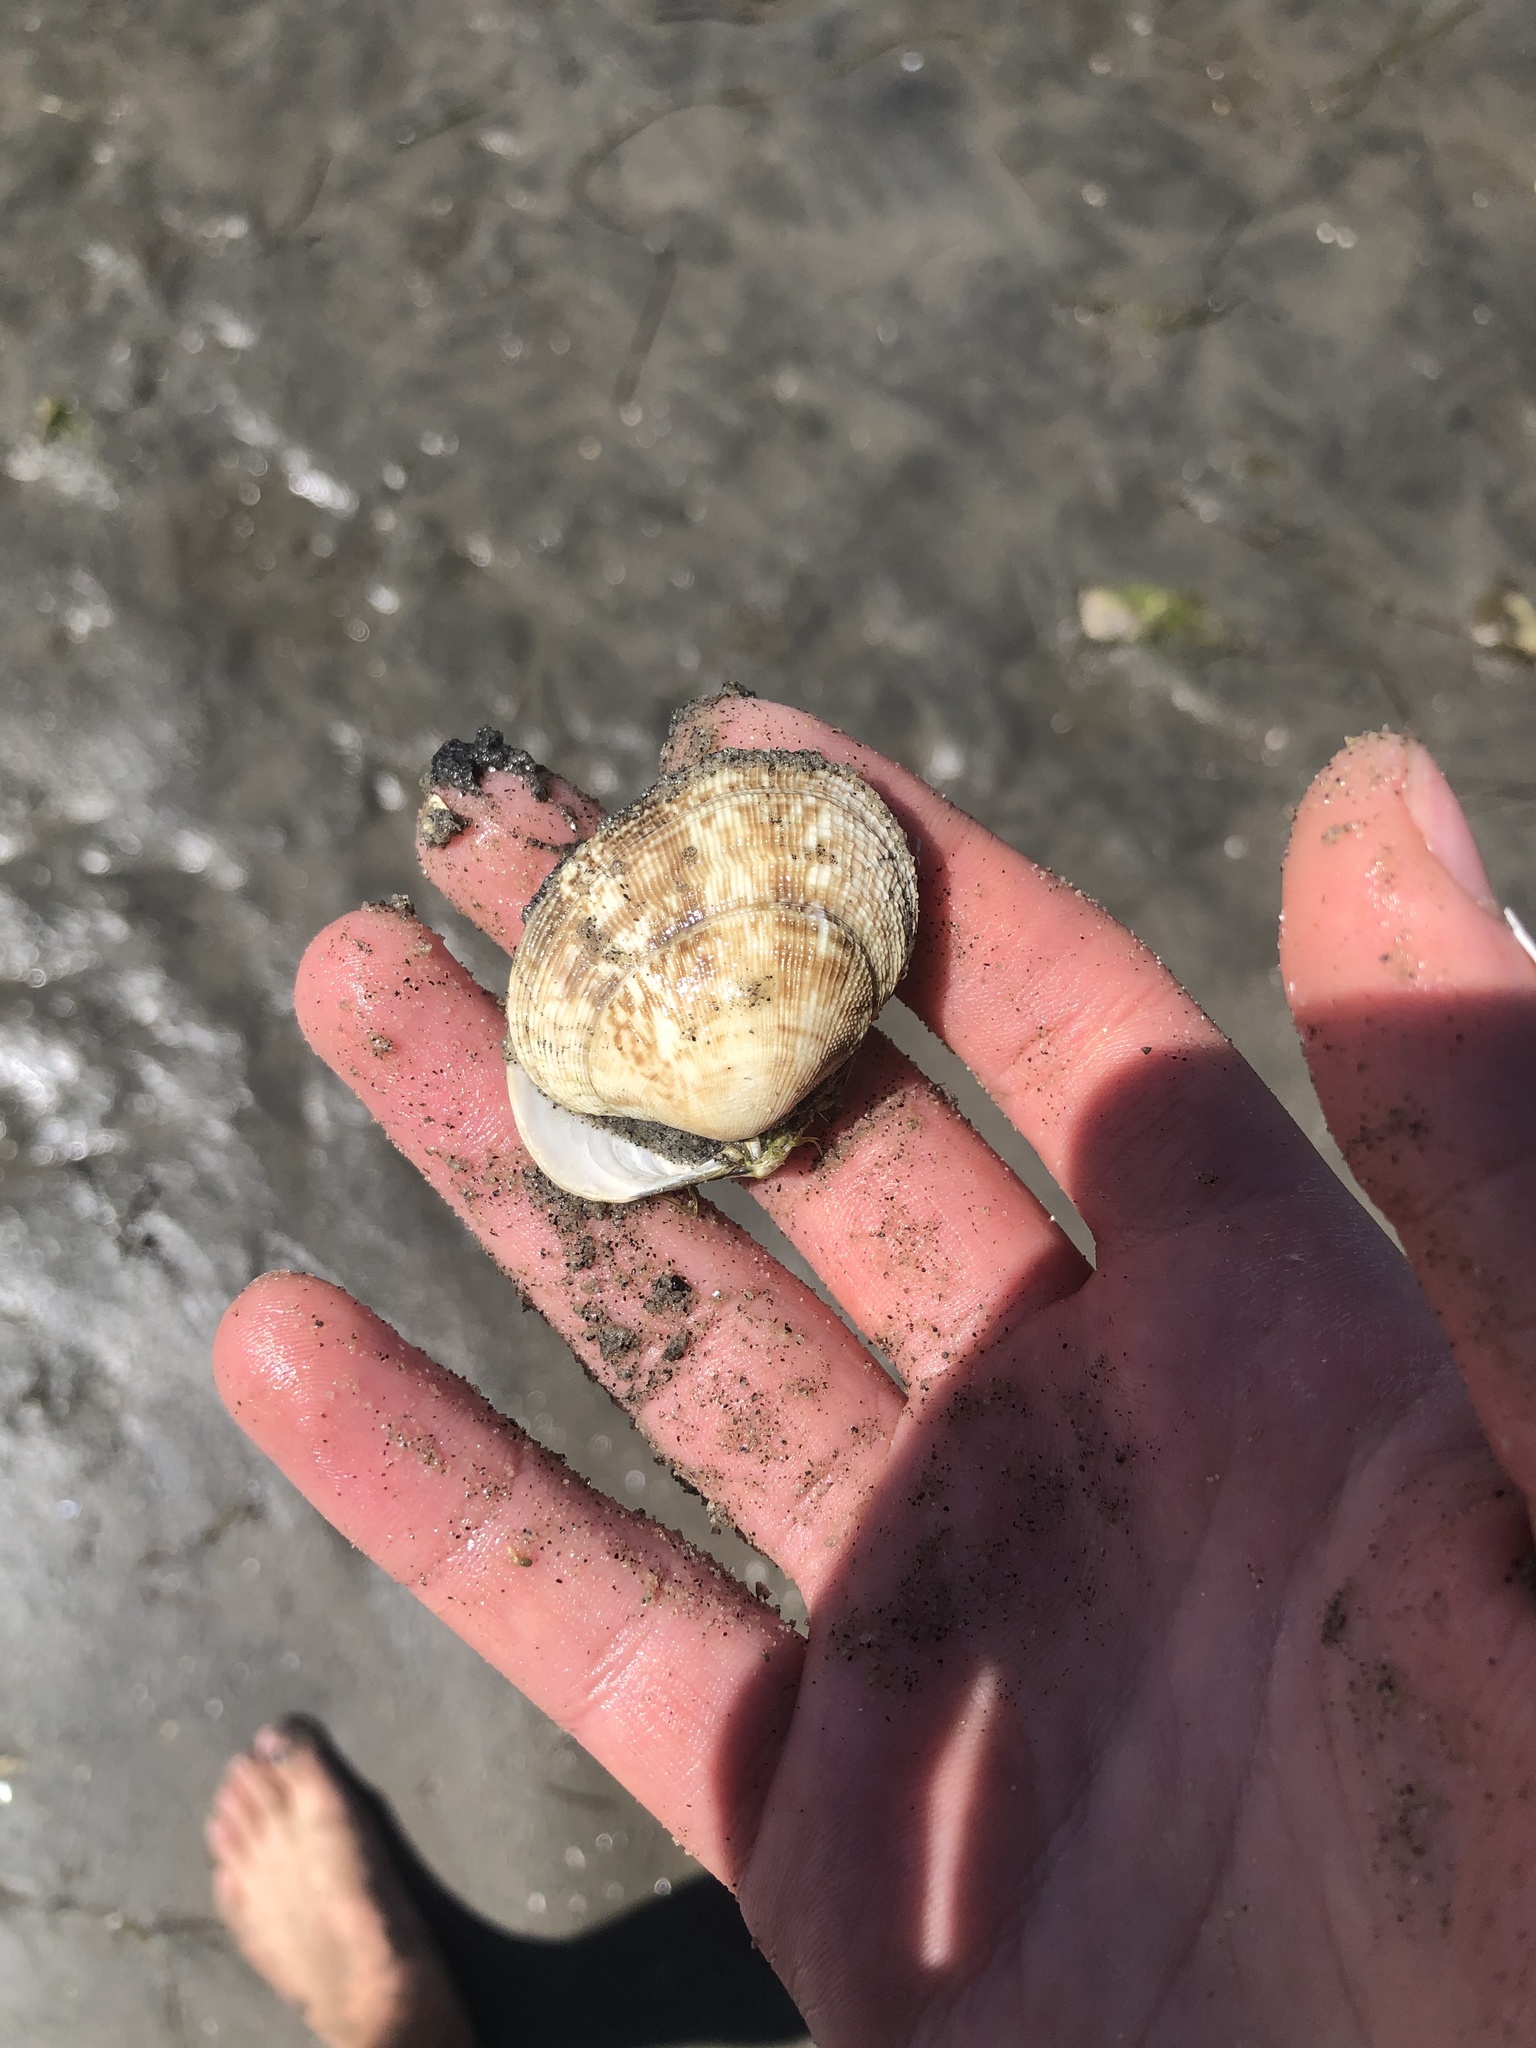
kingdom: Animalia
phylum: Mollusca
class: Bivalvia
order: Venerida
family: Veneridae
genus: Ruditapes
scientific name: Ruditapes philippinarum
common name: Manila clam
